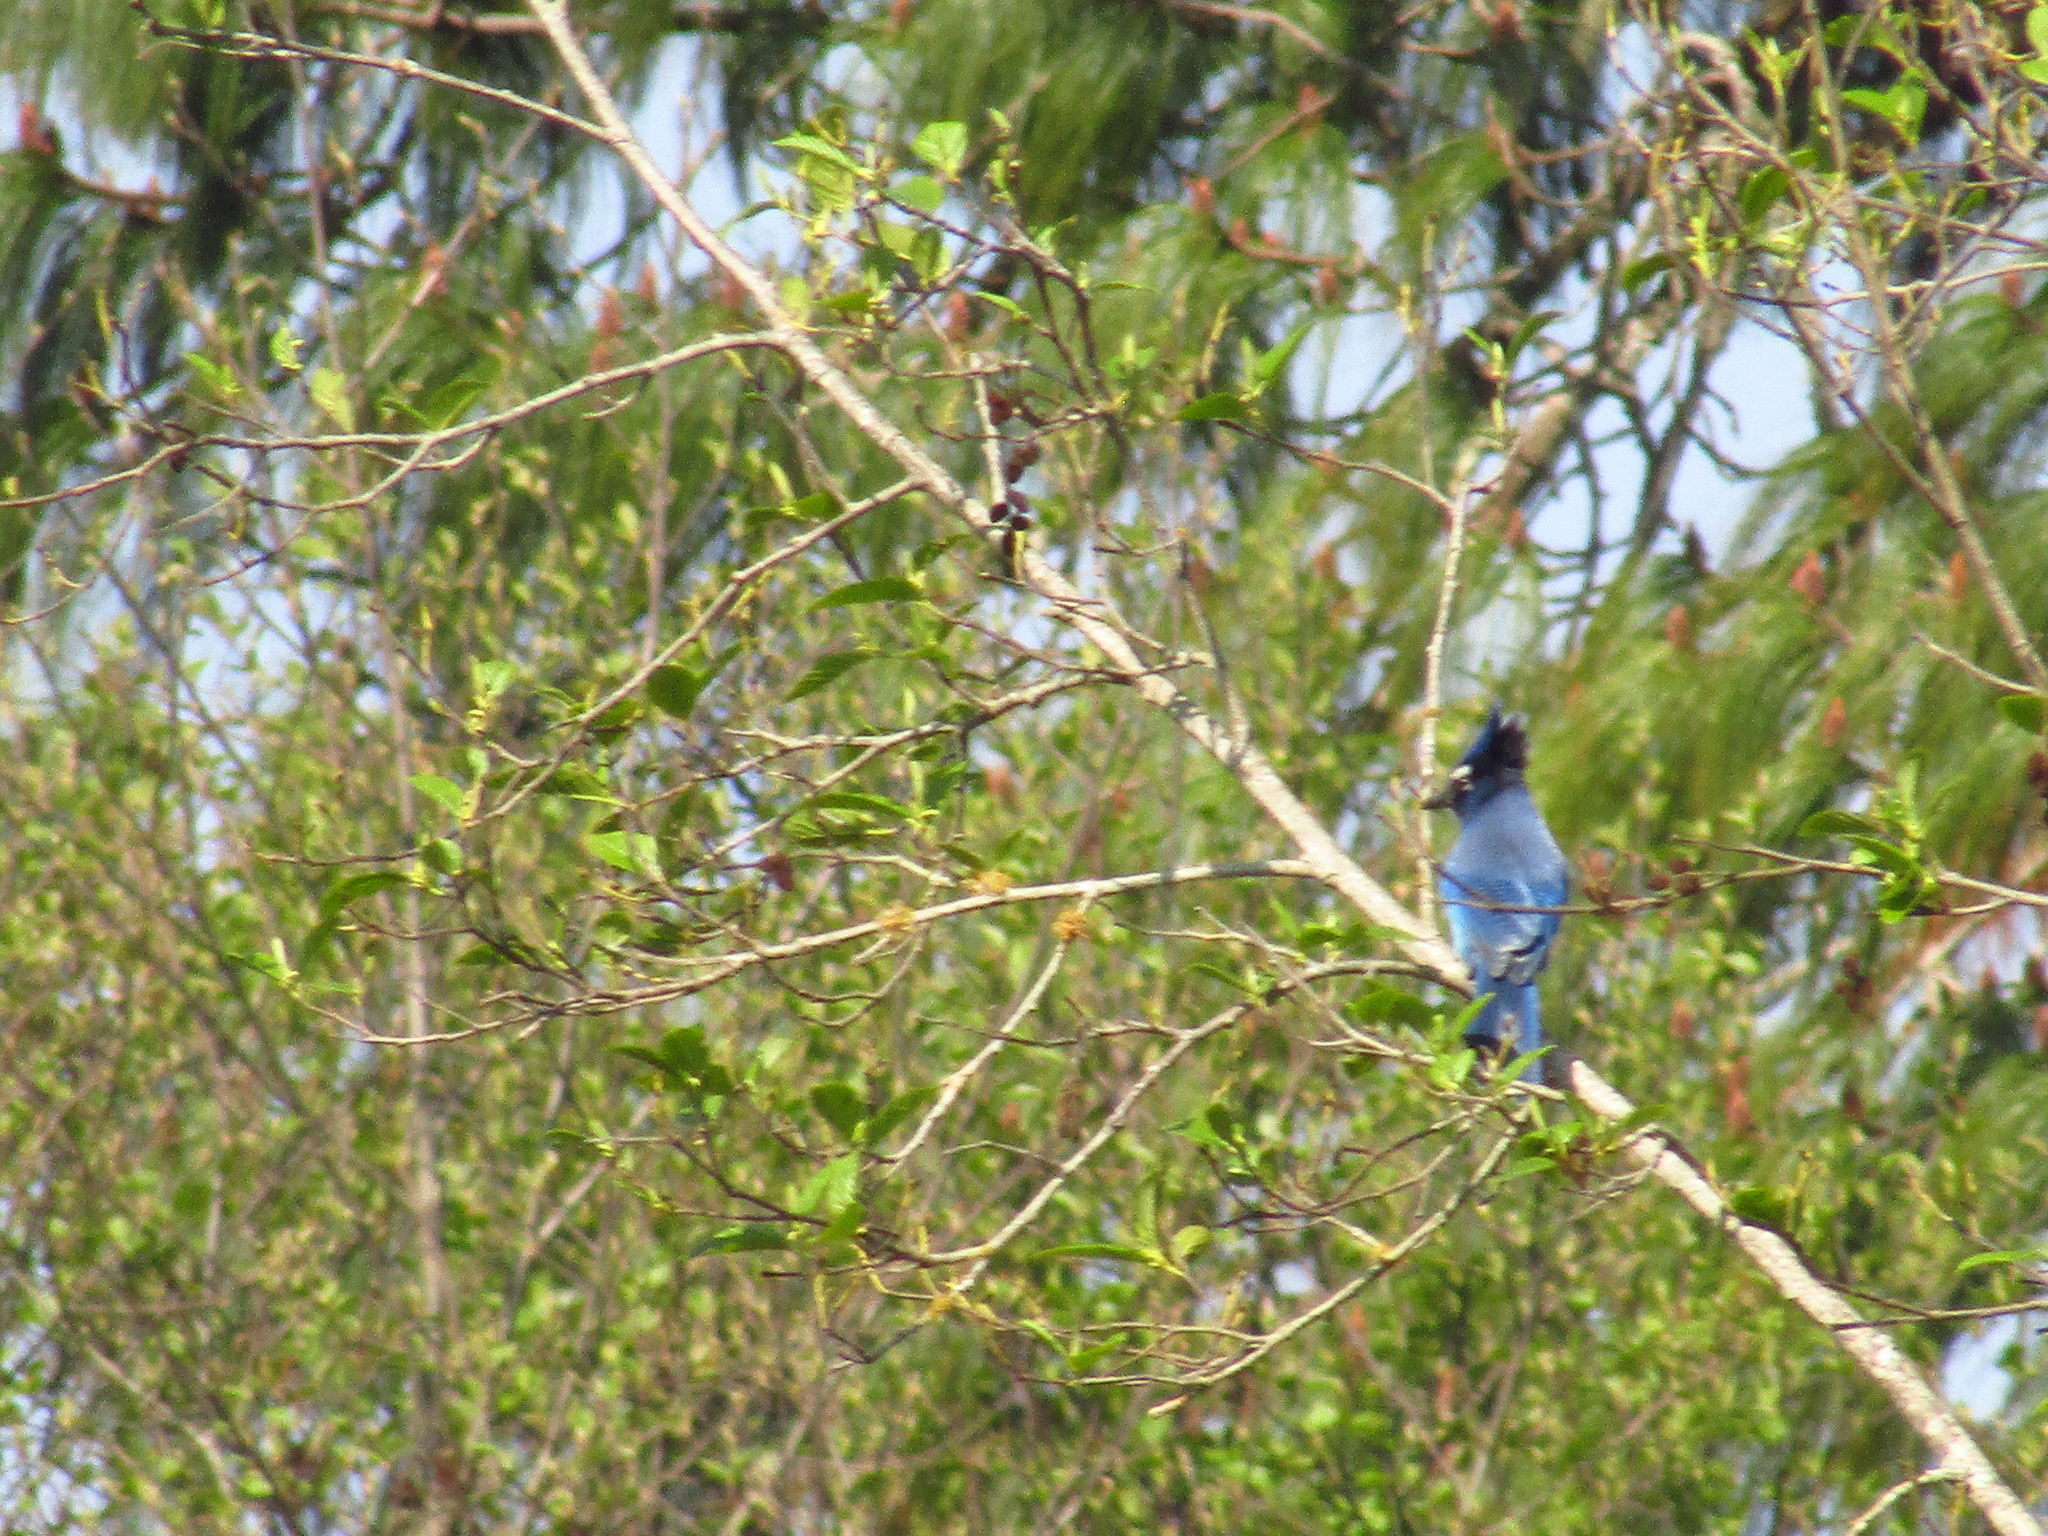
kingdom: Animalia
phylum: Chordata
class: Aves
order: Passeriformes
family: Corvidae
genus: Cyanocitta
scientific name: Cyanocitta stelleri
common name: Steller's jay
